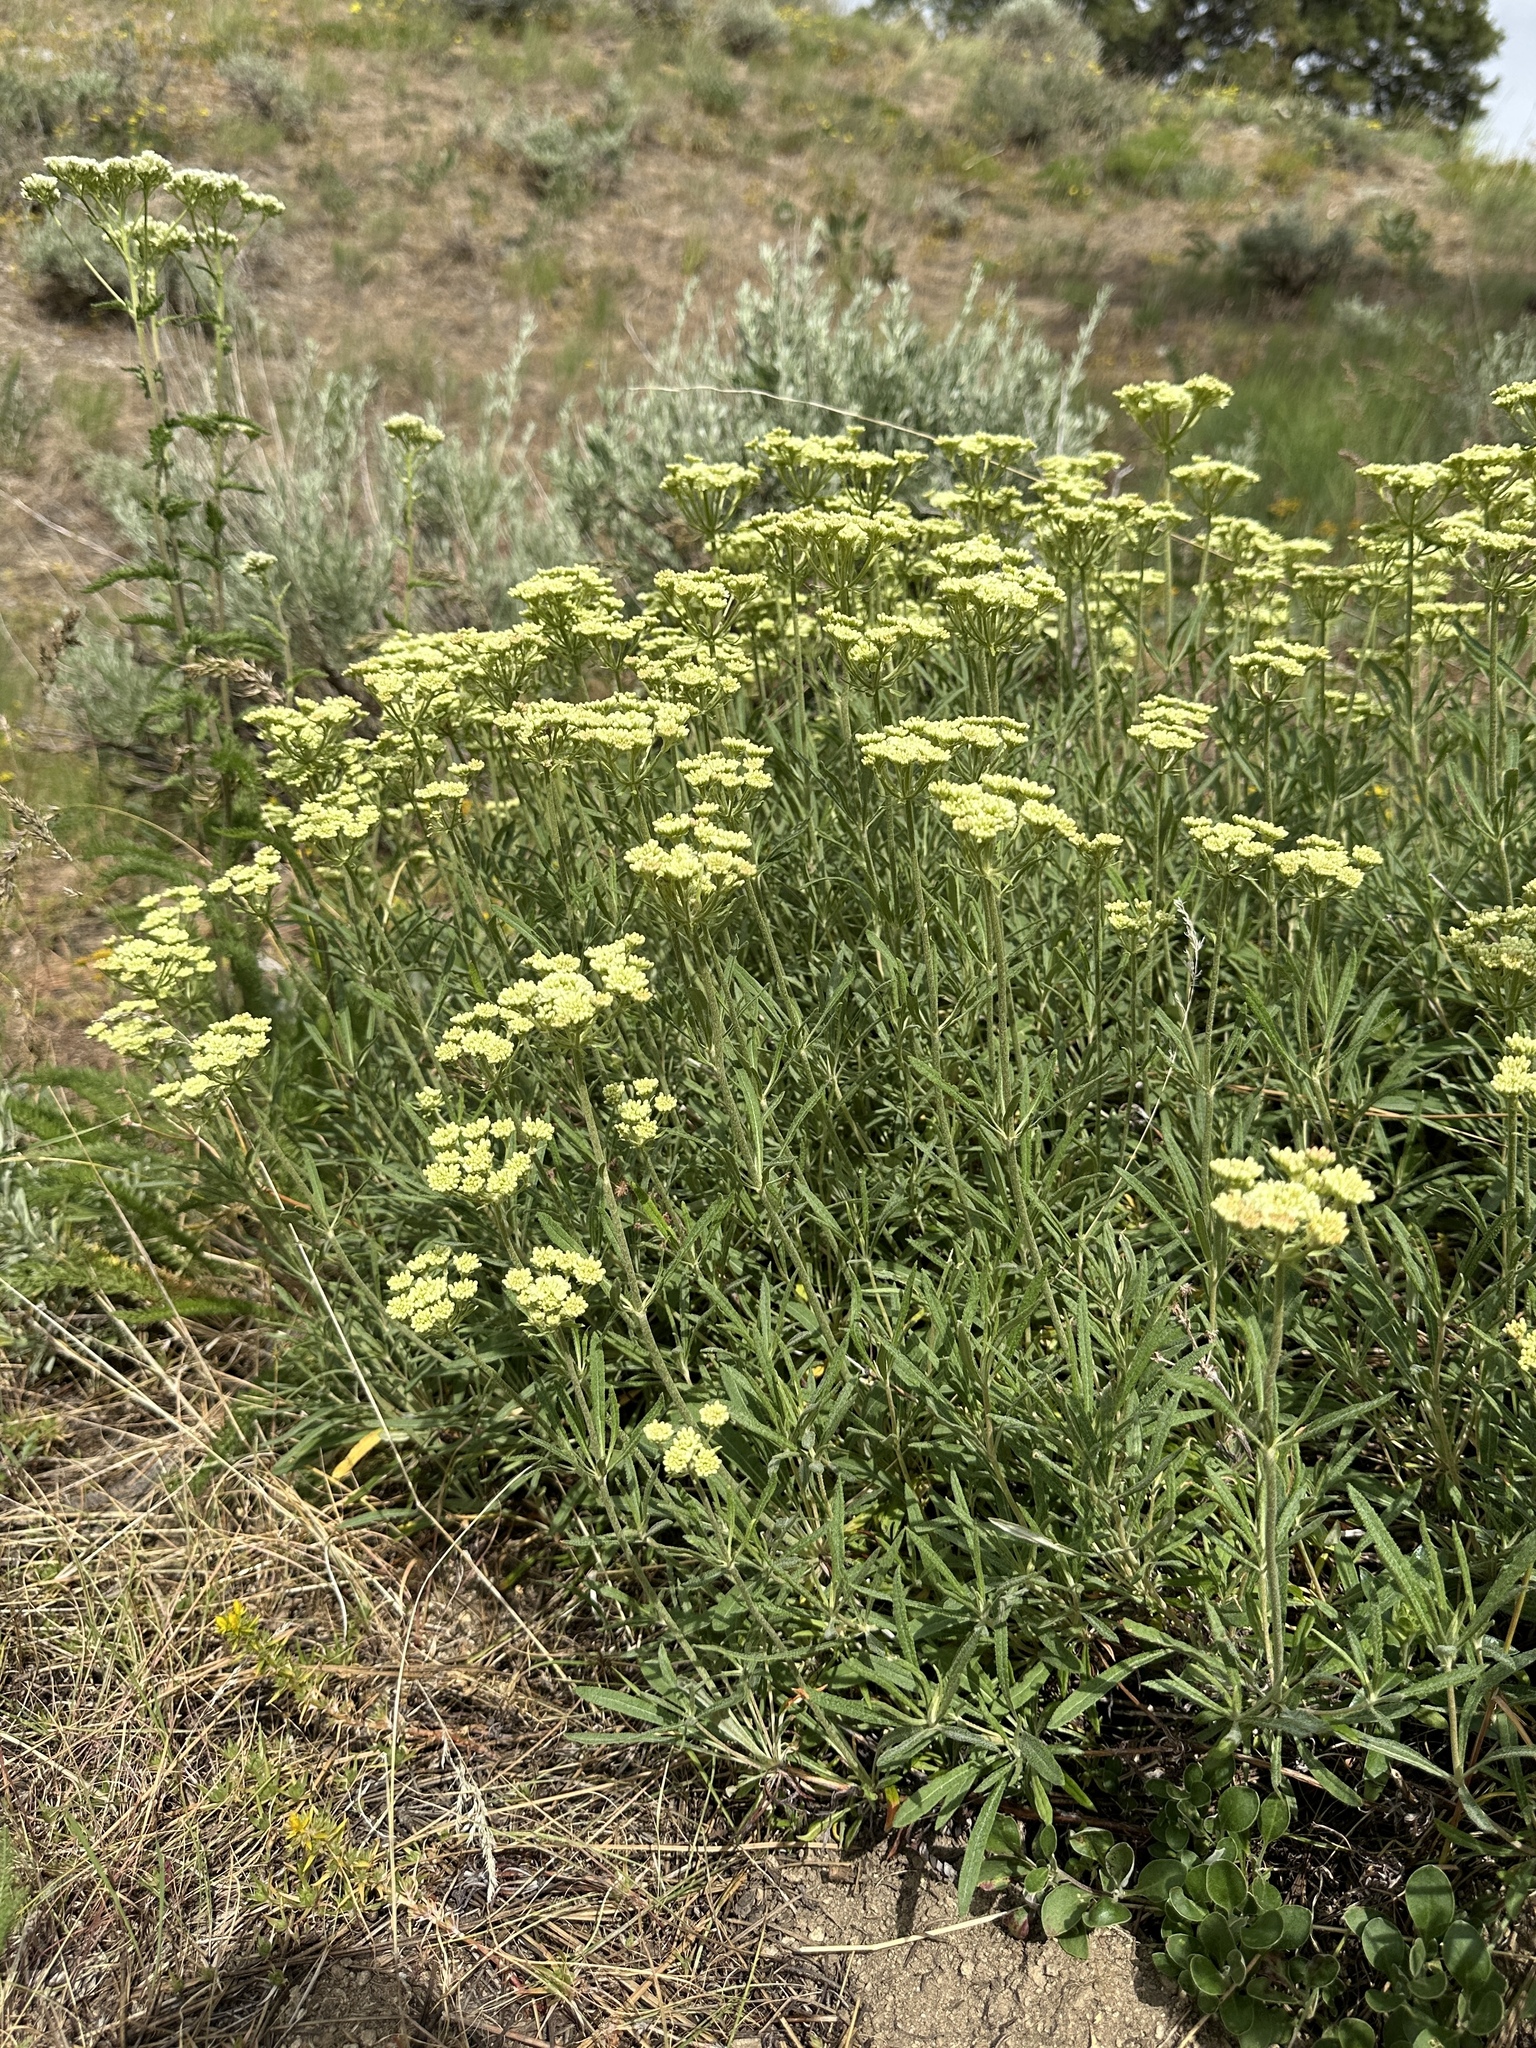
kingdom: Plantae
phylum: Tracheophyta
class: Magnoliopsida
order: Caryophyllales
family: Polygonaceae
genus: Eriogonum
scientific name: Eriogonum heracleoides
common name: Wyeth's buckwheat
